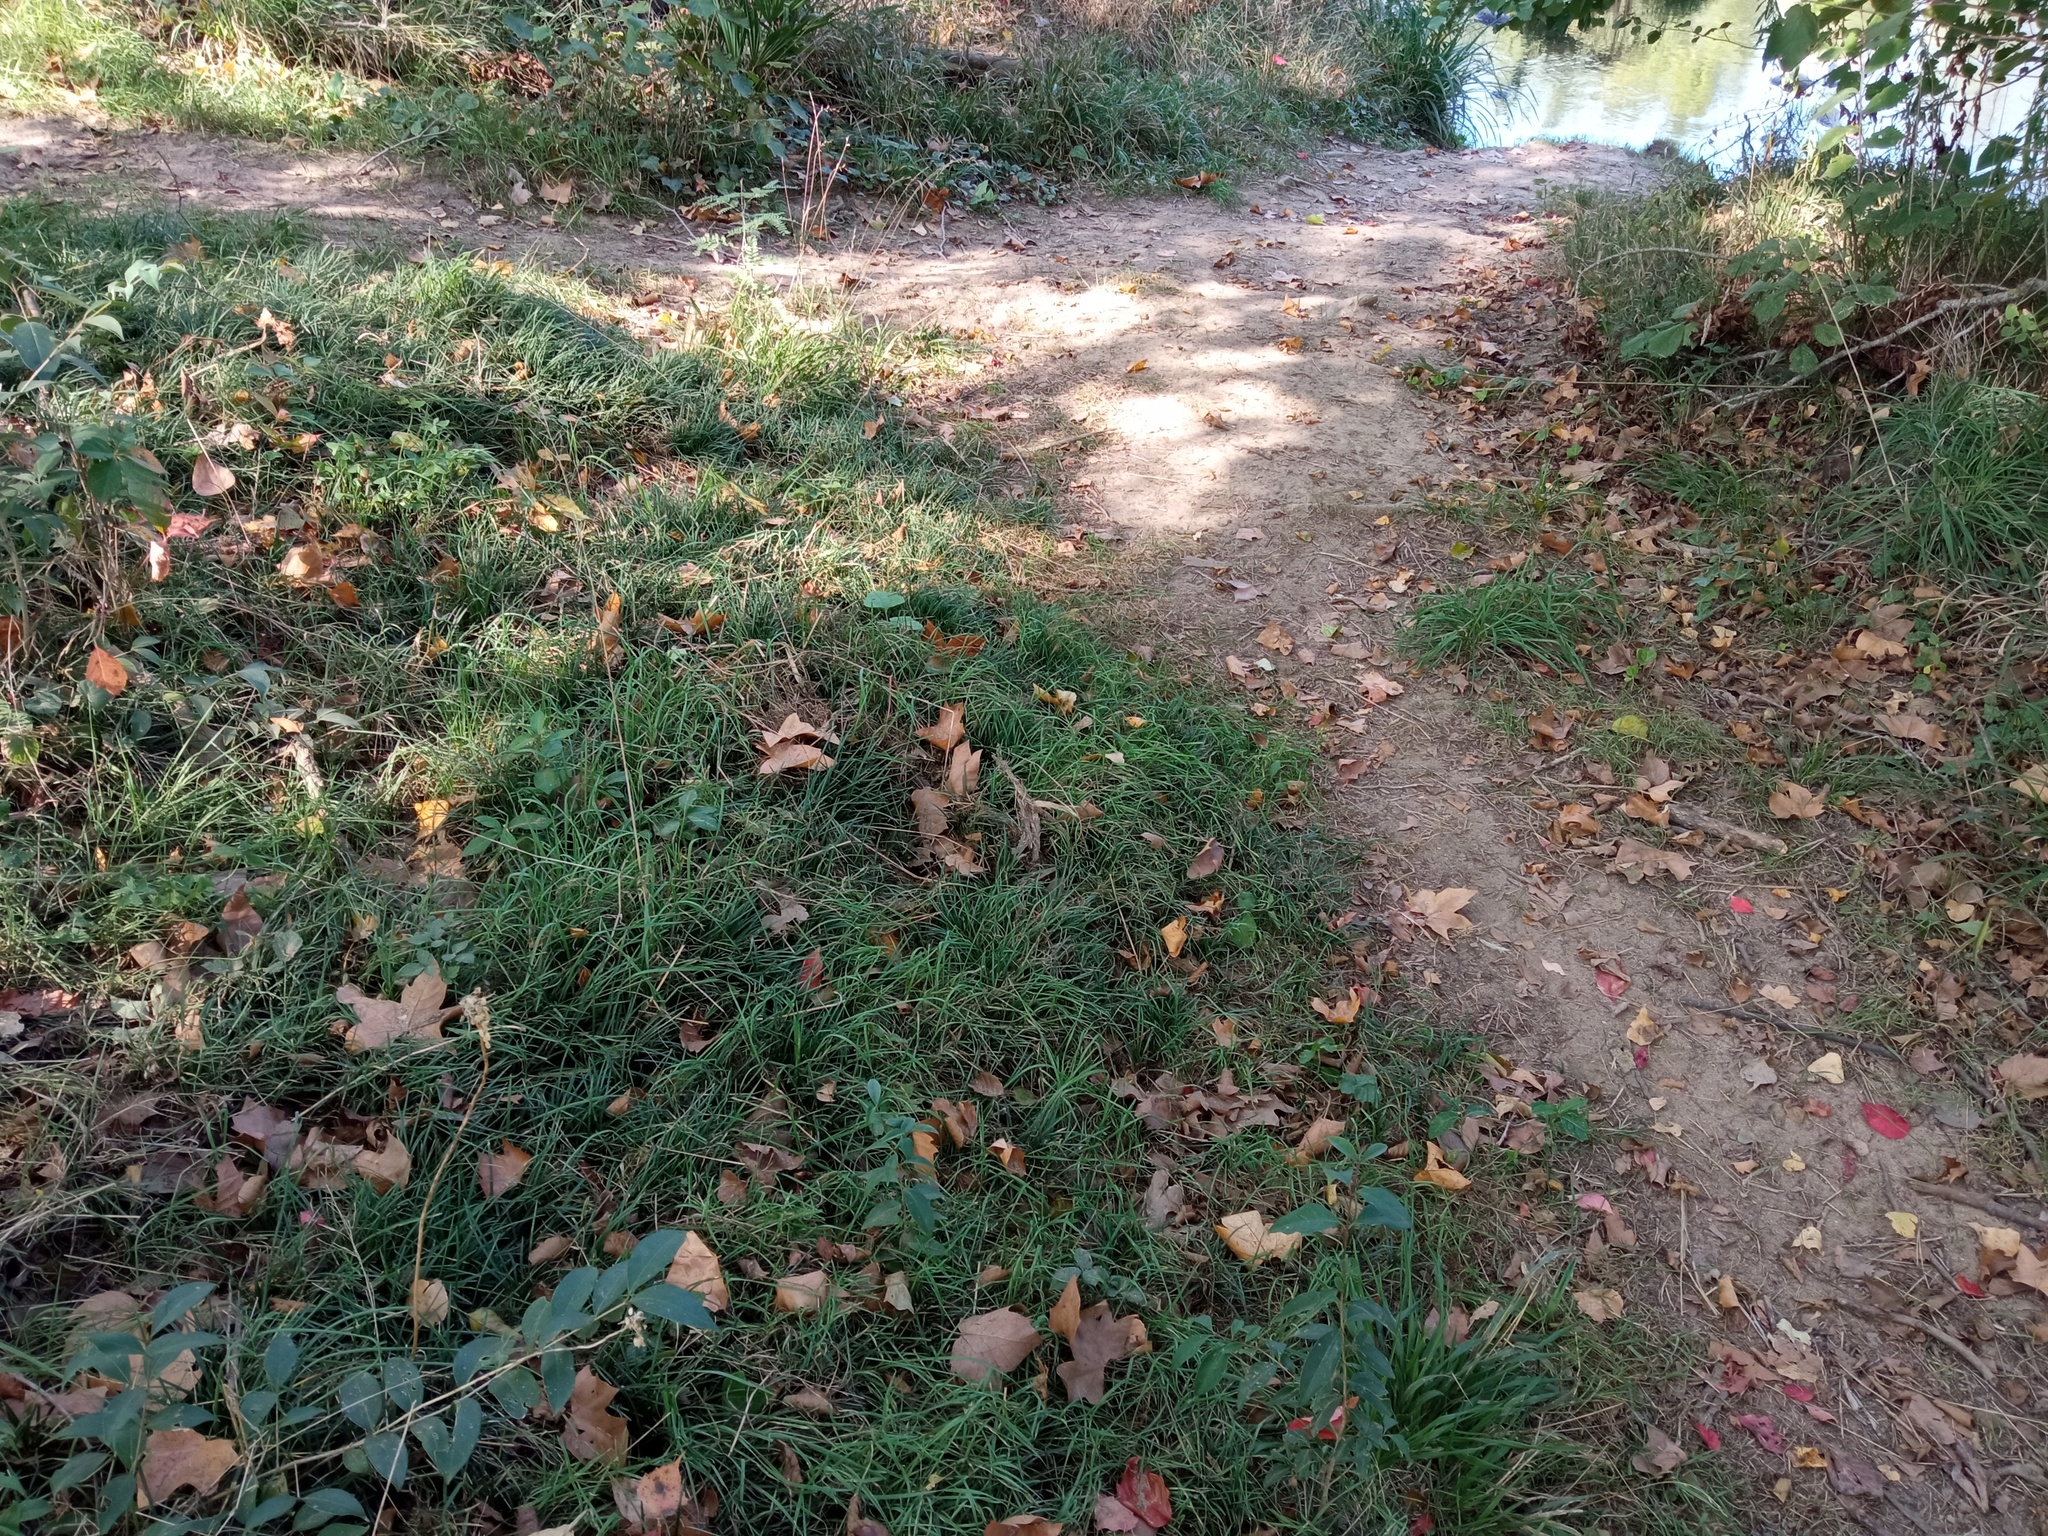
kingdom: Plantae
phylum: Tracheophyta
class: Liliopsida
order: Asparagales
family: Asparagaceae
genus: Ophiopogon
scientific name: Ophiopogon japonicus
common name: Dwarf lilyturf
